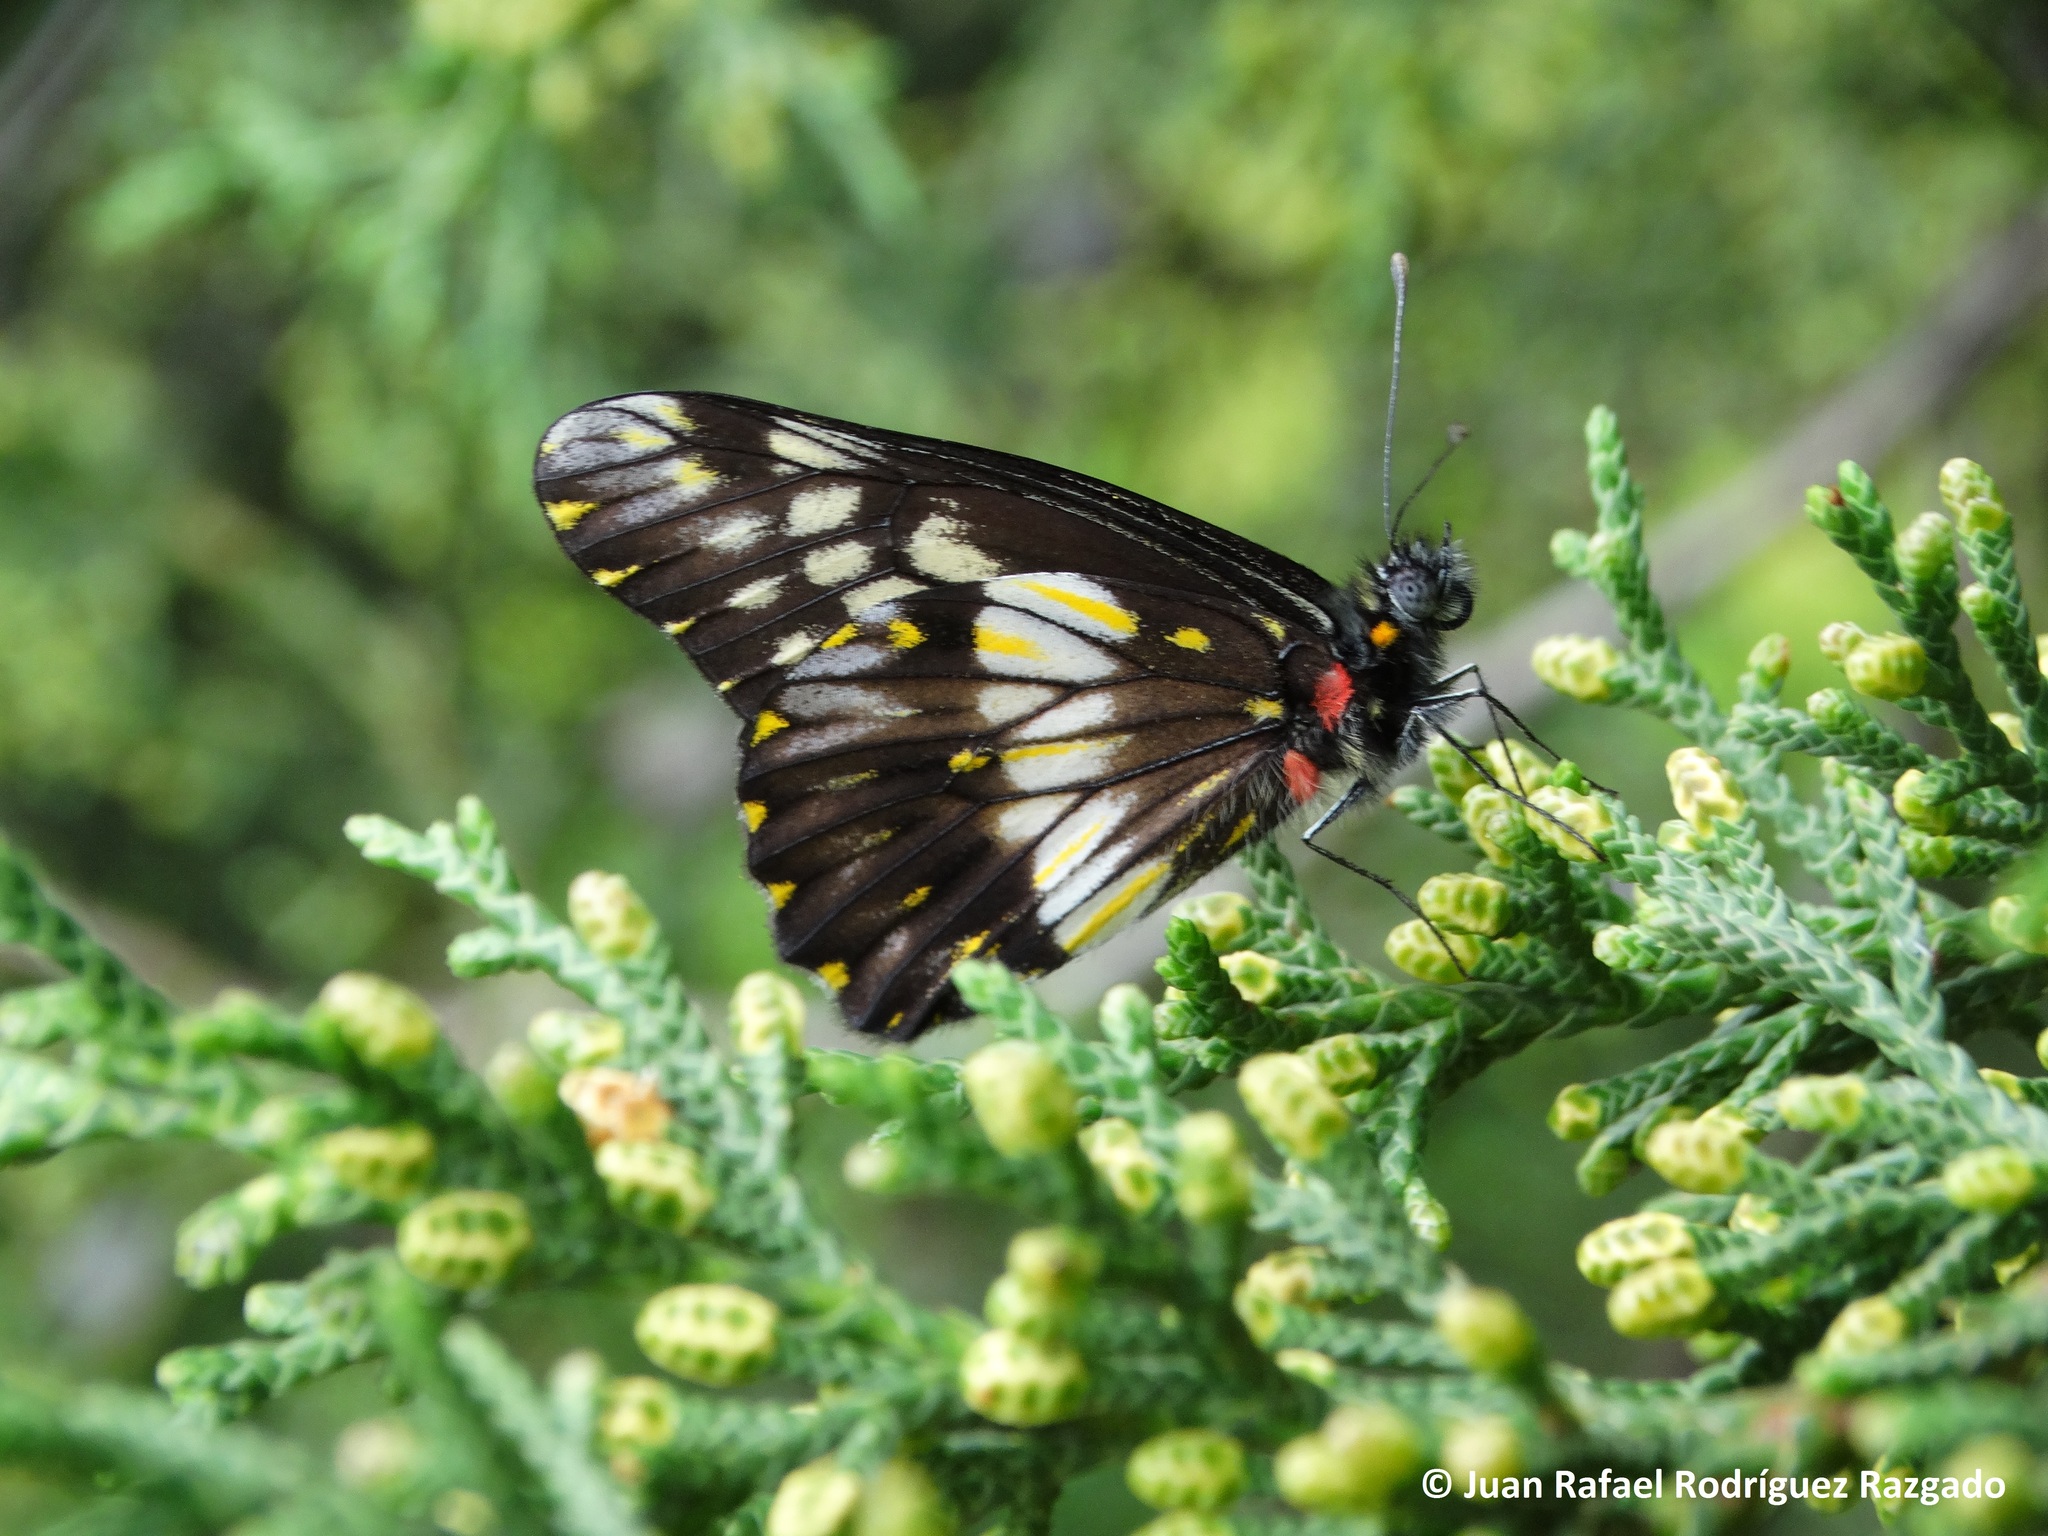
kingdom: Animalia
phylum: Arthropoda
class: Insecta
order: Lepidoptera
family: Pieridae
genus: Archonias
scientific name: Archonias nimbice
